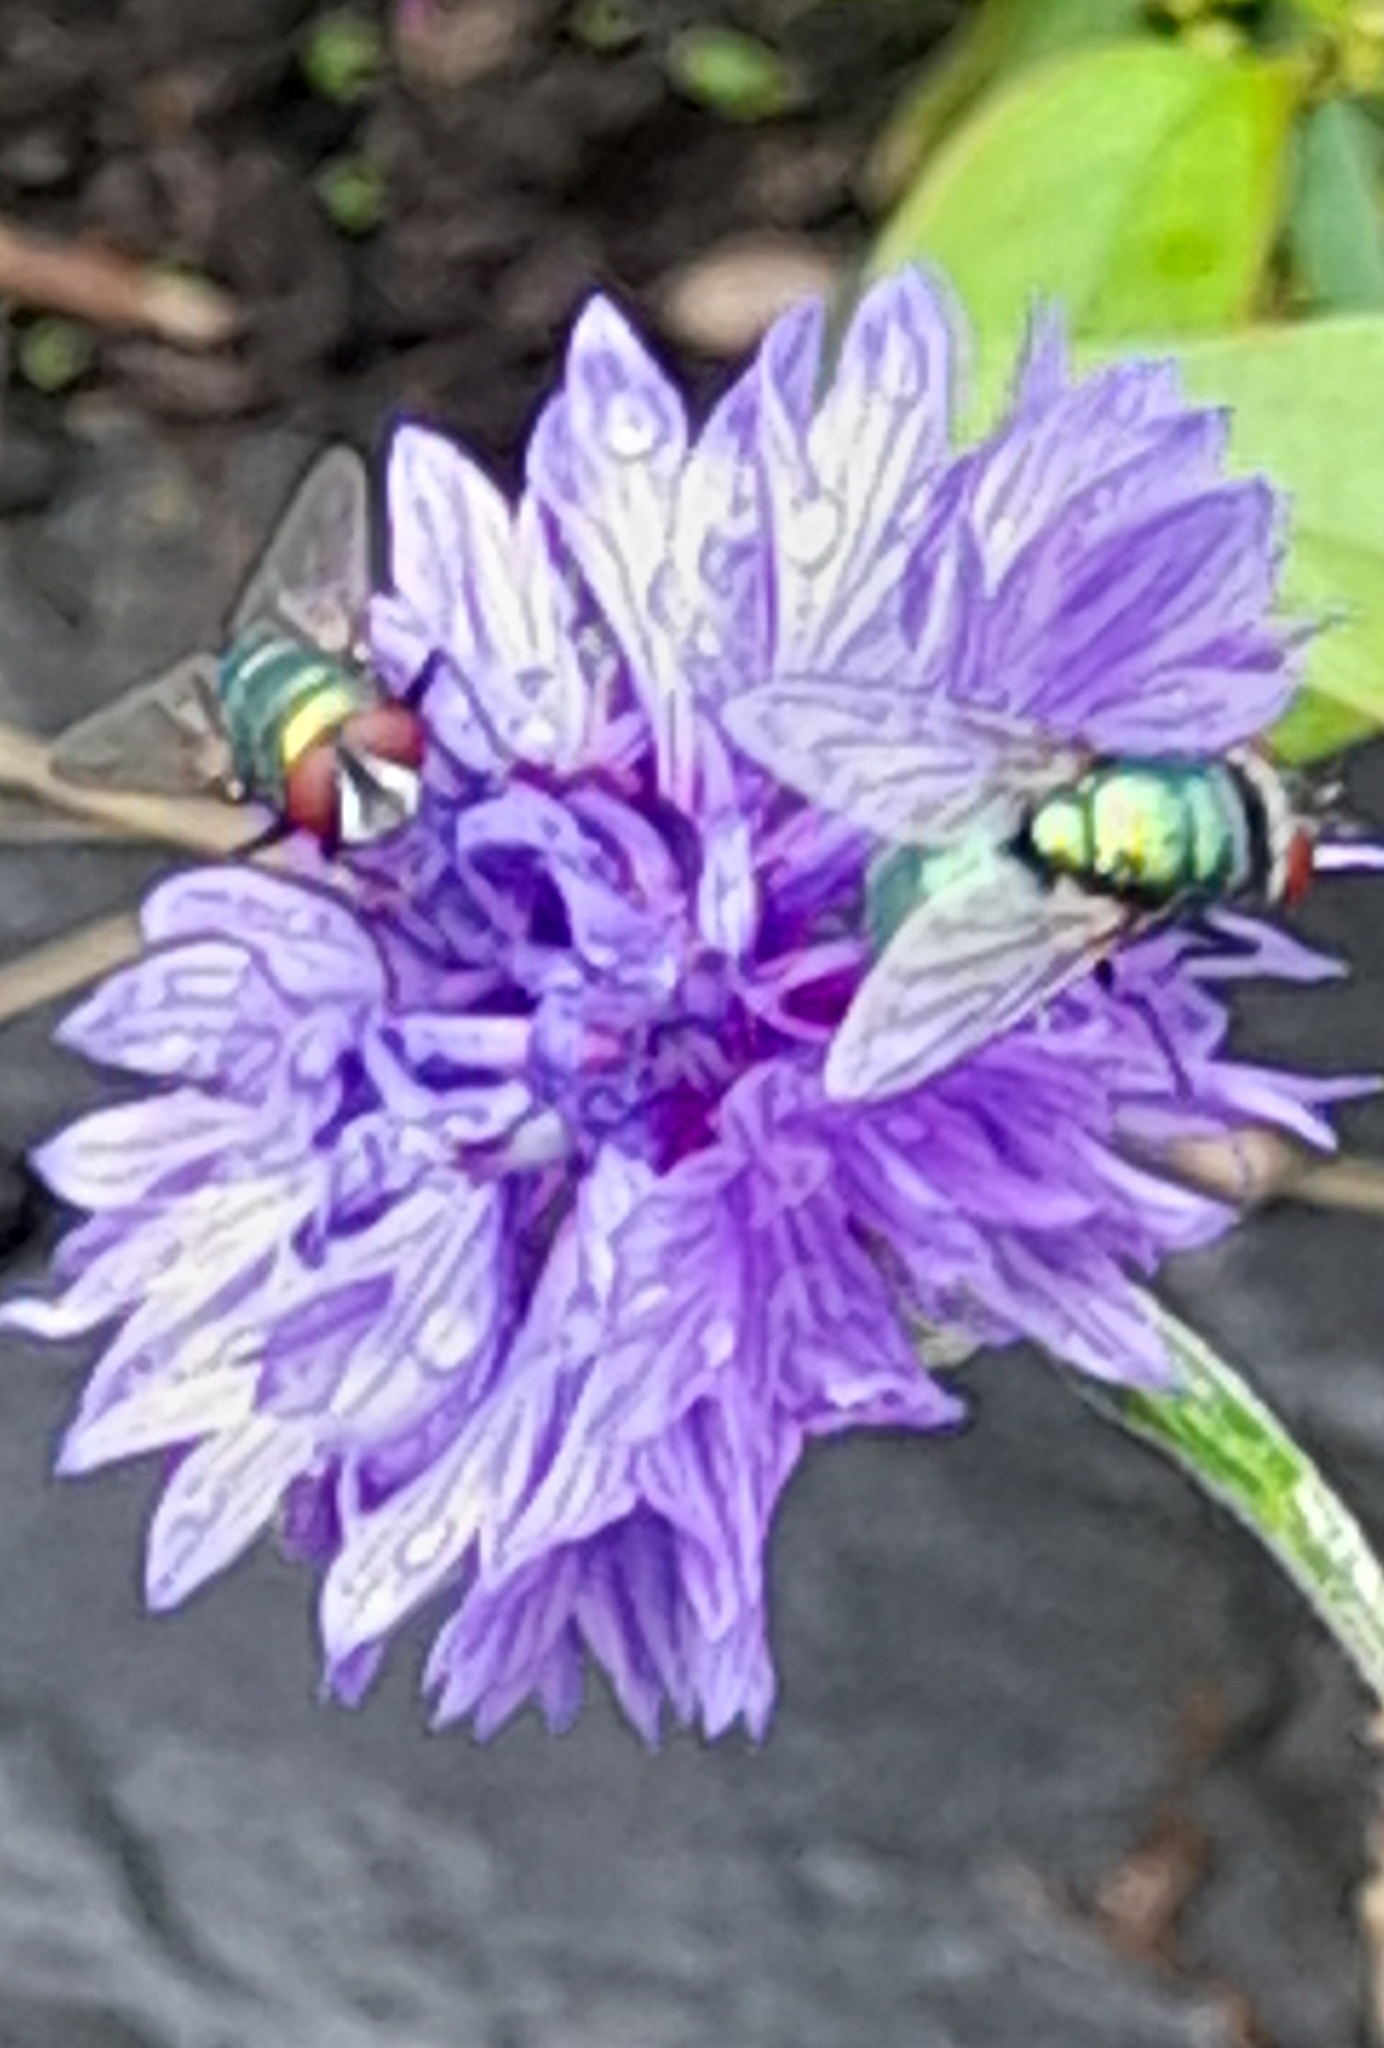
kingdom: Animalia
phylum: Arthropoda
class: Insecta
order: Diptera
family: Calliphoridae
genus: Lucilia
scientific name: Lucilia
